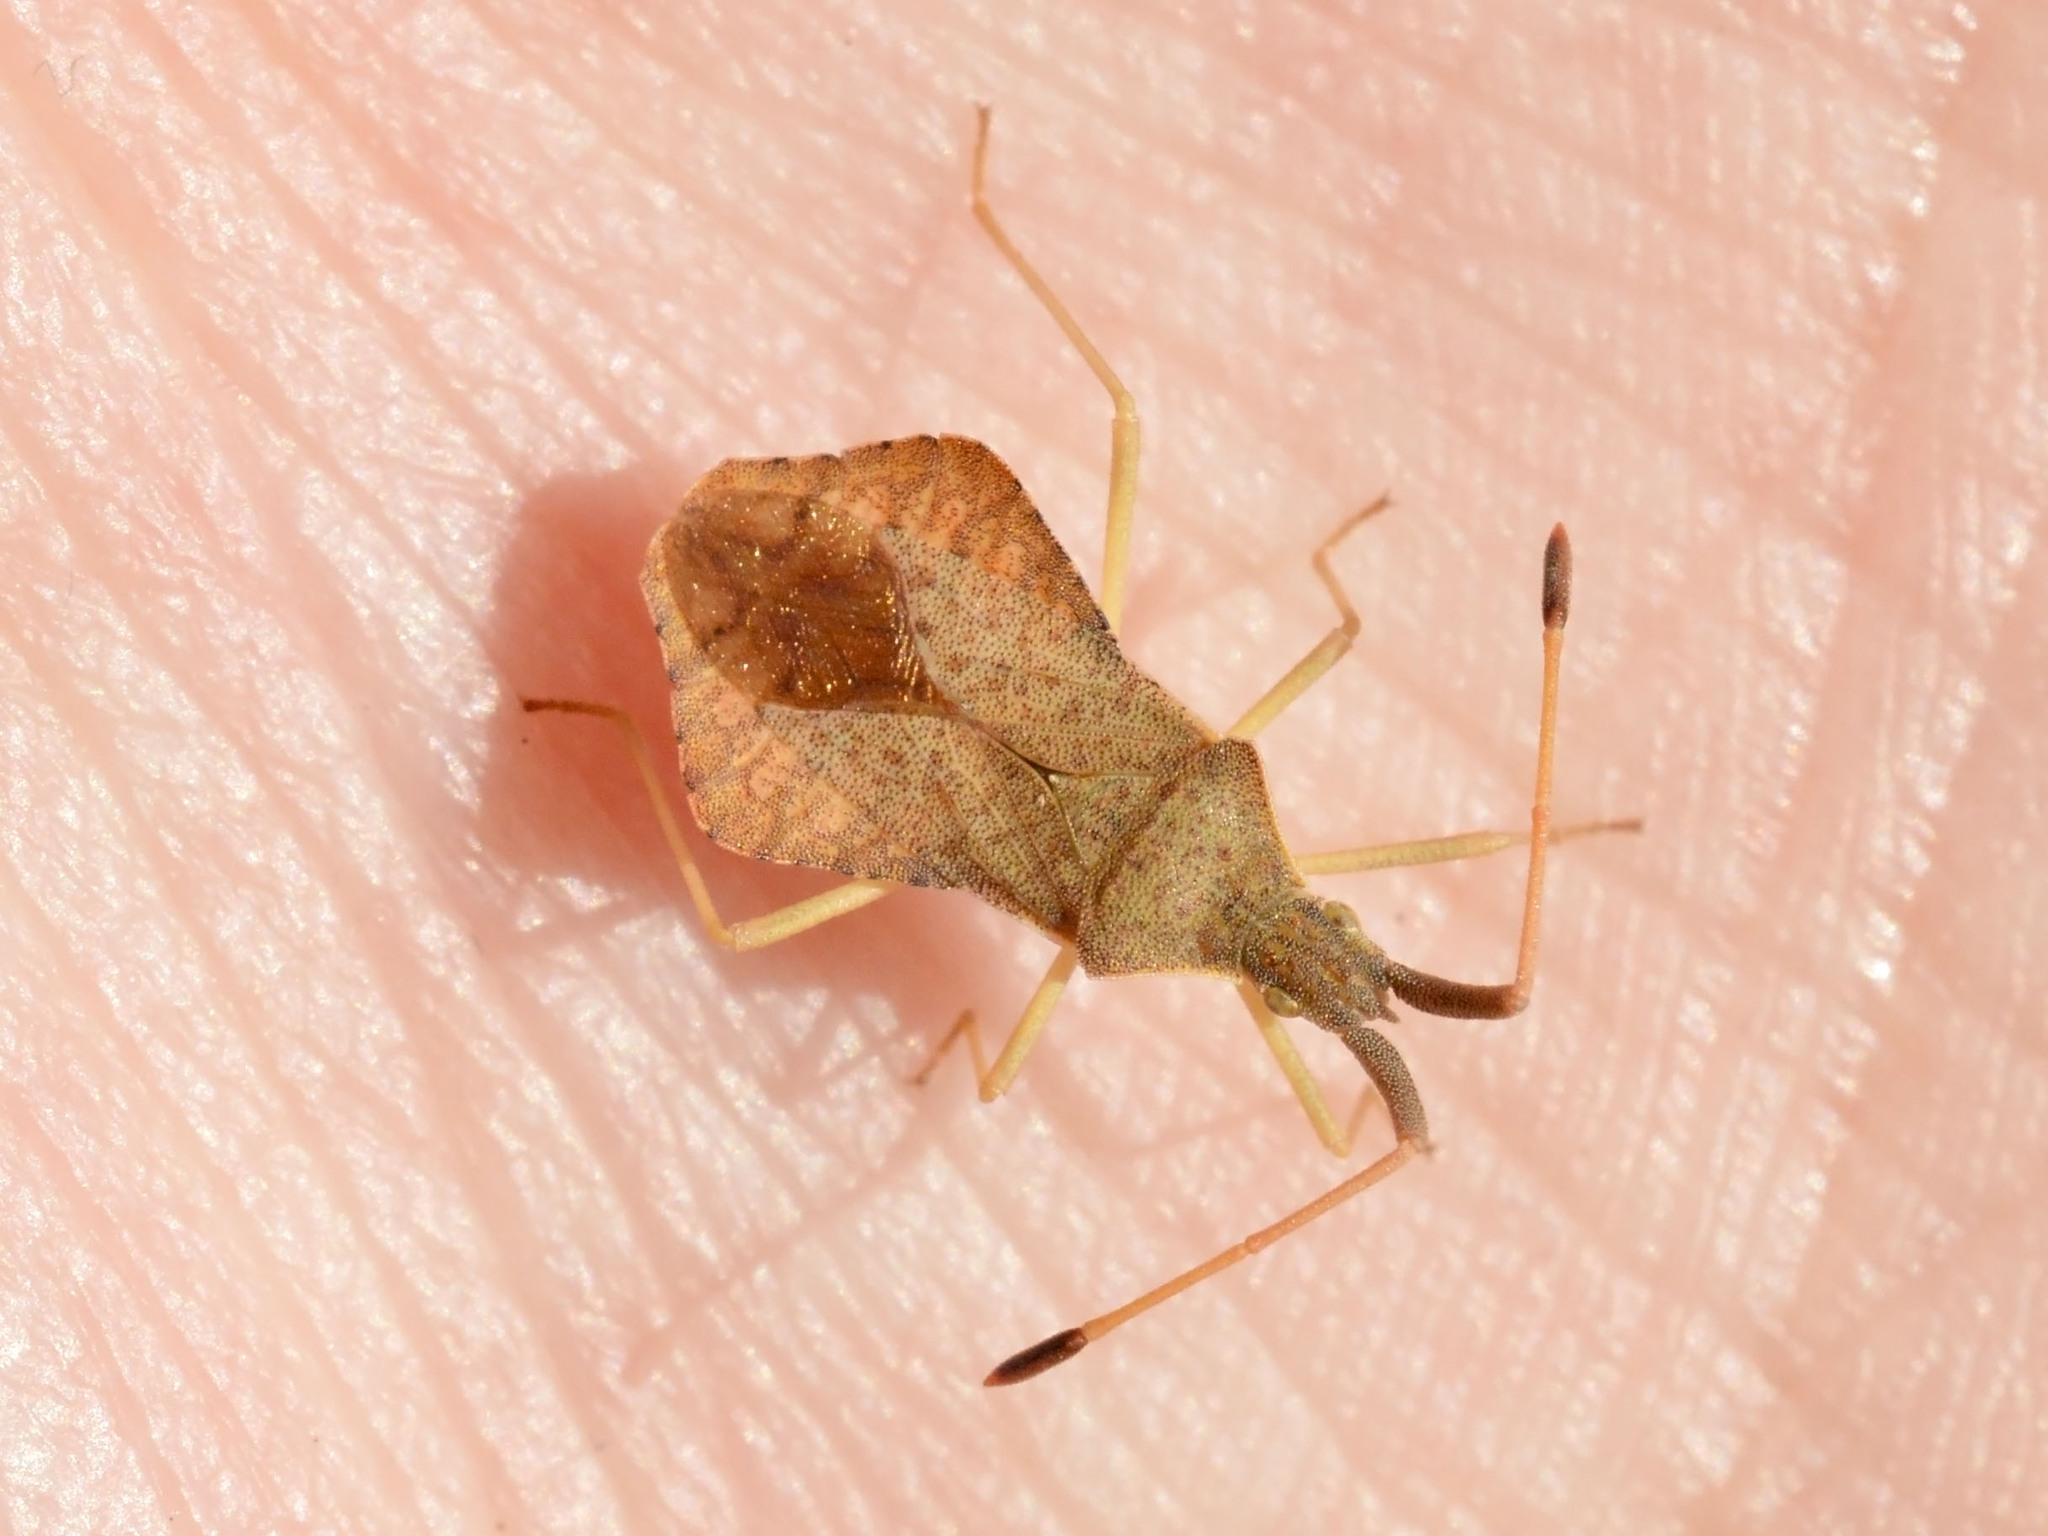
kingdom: Animalia
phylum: Arthropoda
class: Insecta
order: Hemiptera
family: Coreidae
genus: Syromastus
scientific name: Syromastus rhombeus
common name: Rhombic leatherbug
